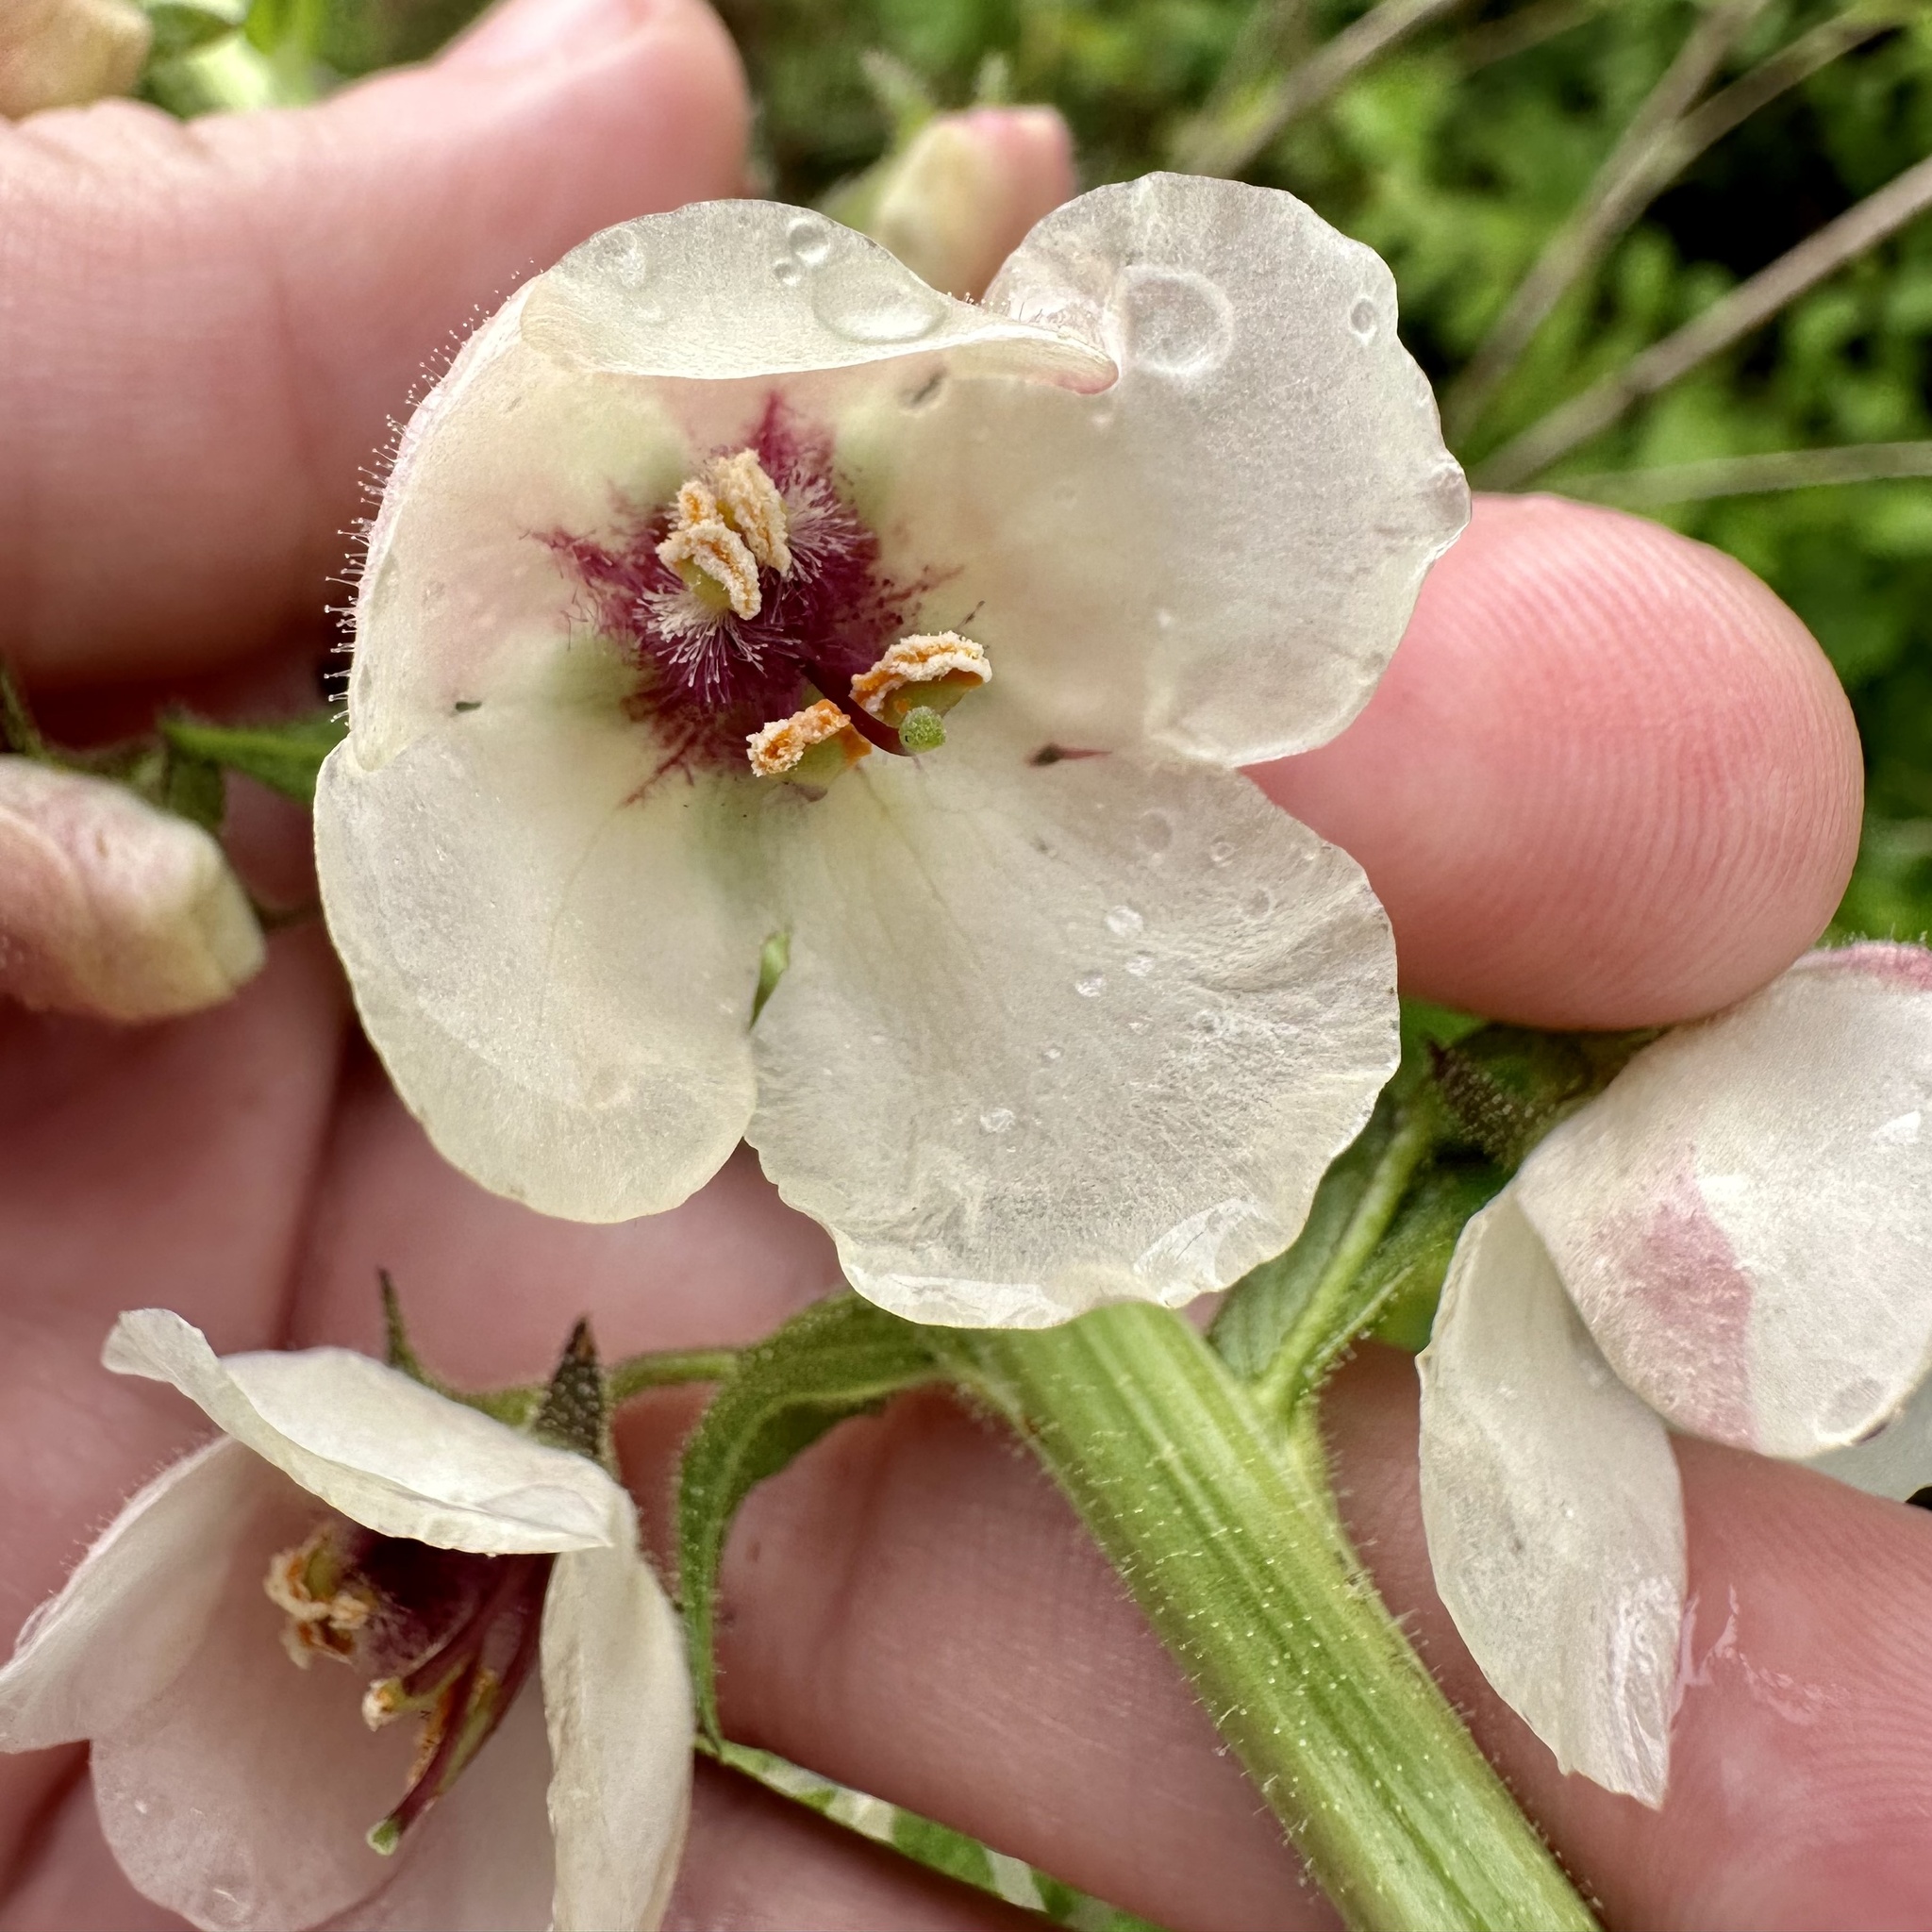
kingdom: Plantae
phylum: Tracheophyta
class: Magnoliopsida
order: Lamiales
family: Scrophulariaceae
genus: Verbascum
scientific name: Verbascum blattaria
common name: Moth mullein
